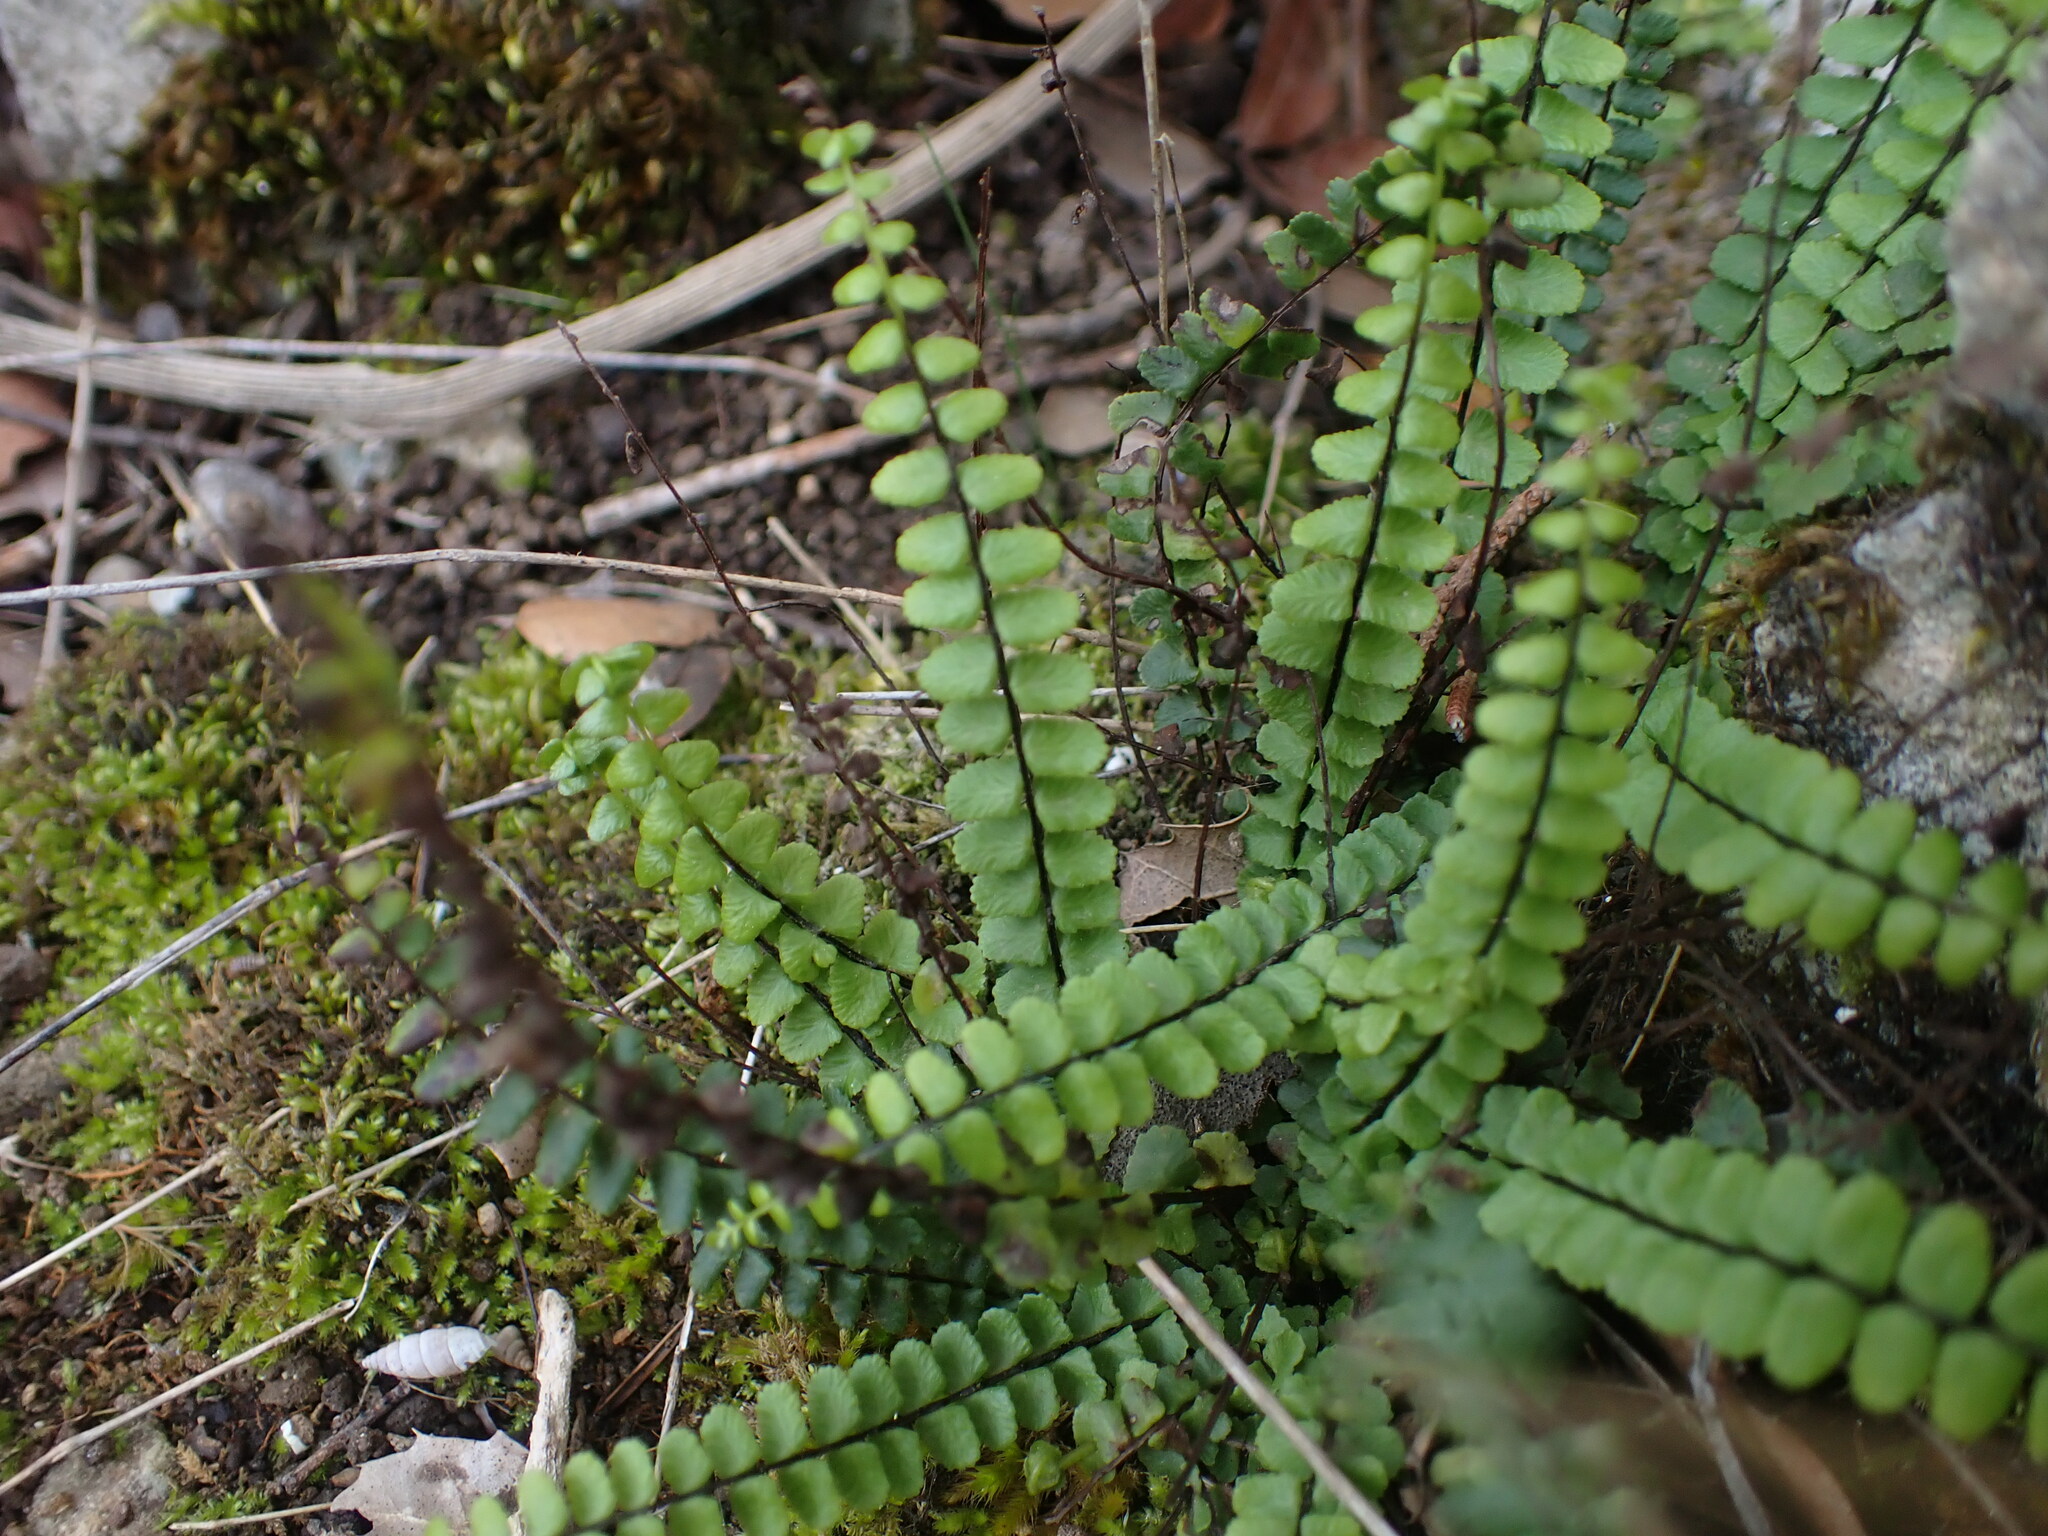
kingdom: Plantae
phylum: Tracheophyta
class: Polypodiopsida
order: Polypodiales
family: Aspleniaceae
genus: Asplenium
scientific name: Asplenium trichomanes
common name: Maidenhair spleenwort
